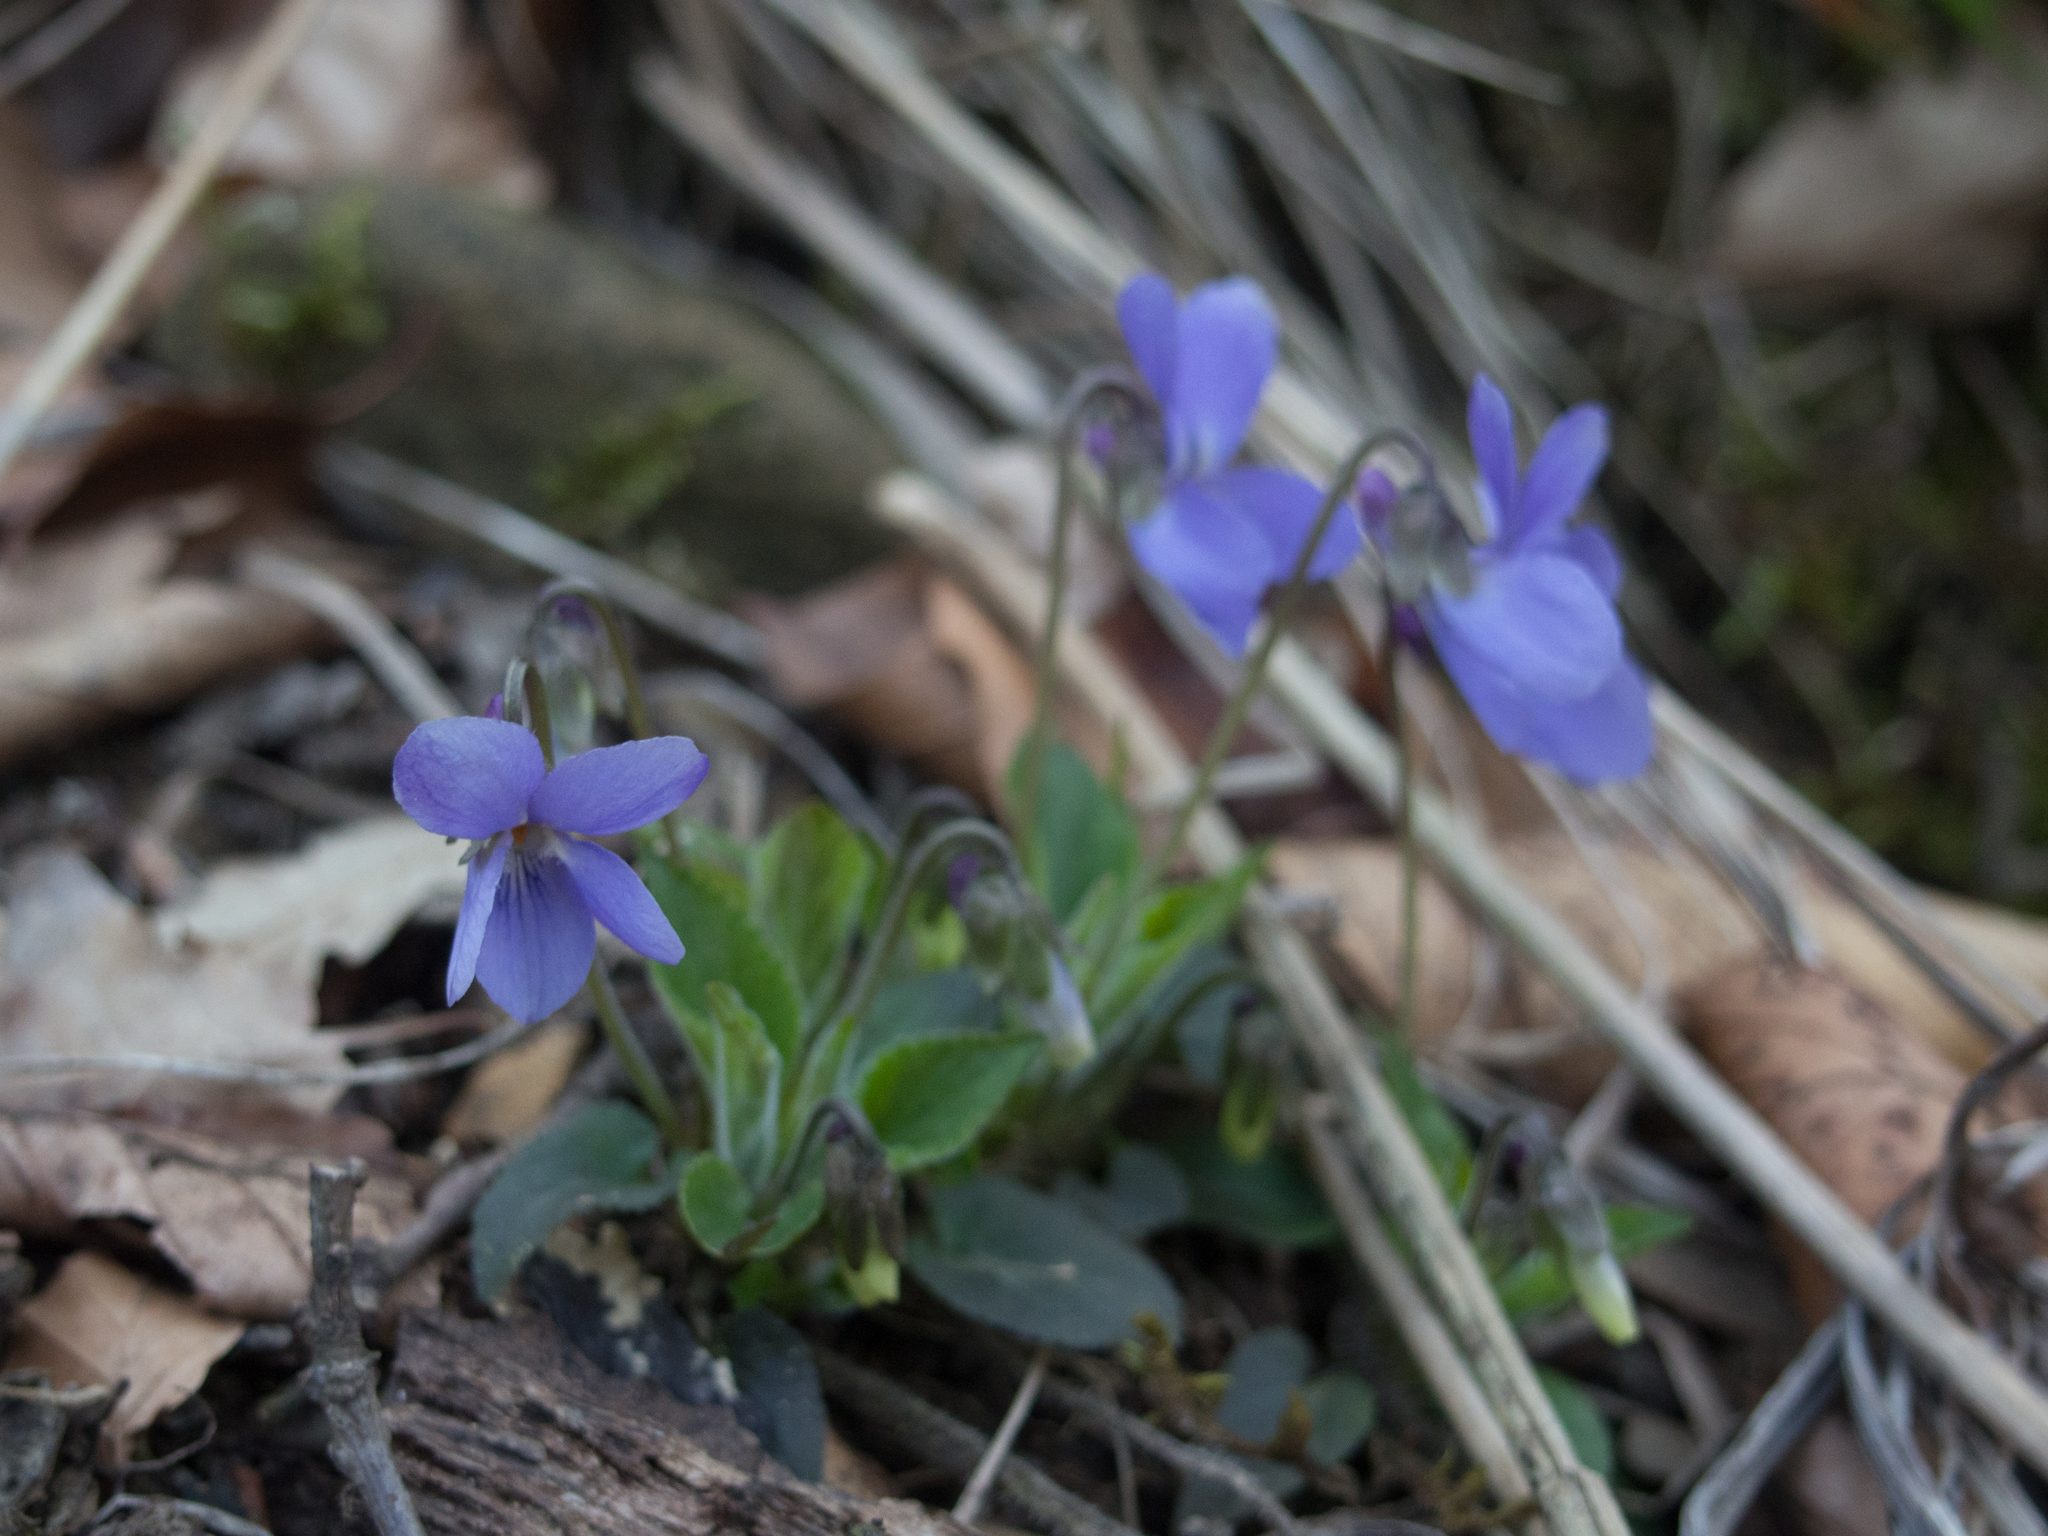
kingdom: Plantae
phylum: Tracheophyta
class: Magnoliopsida
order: Malpighiales
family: Violaceae
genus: Viola
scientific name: Viola hirta
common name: Hairy violet
